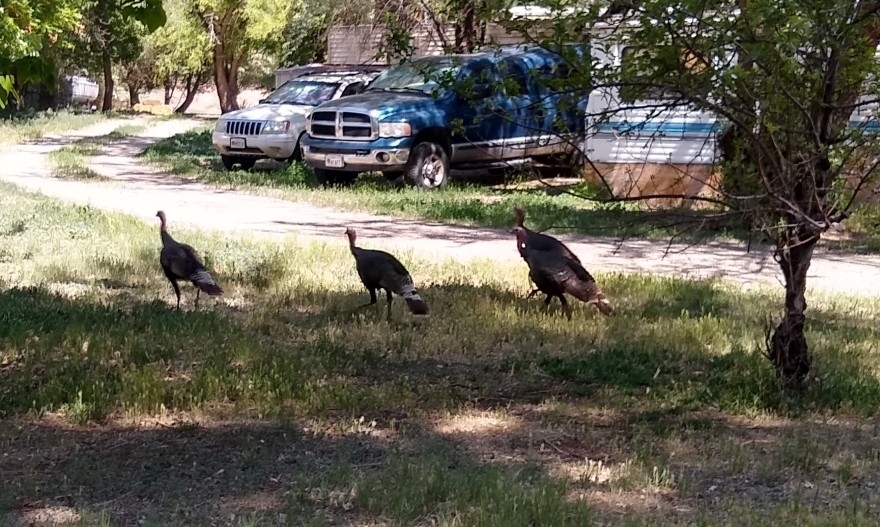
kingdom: Animalia
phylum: Chordata
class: Aves
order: Galliformes
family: Phasianidae
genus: Meleagris
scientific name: Meleagris gallopavo
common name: Wild turkey
